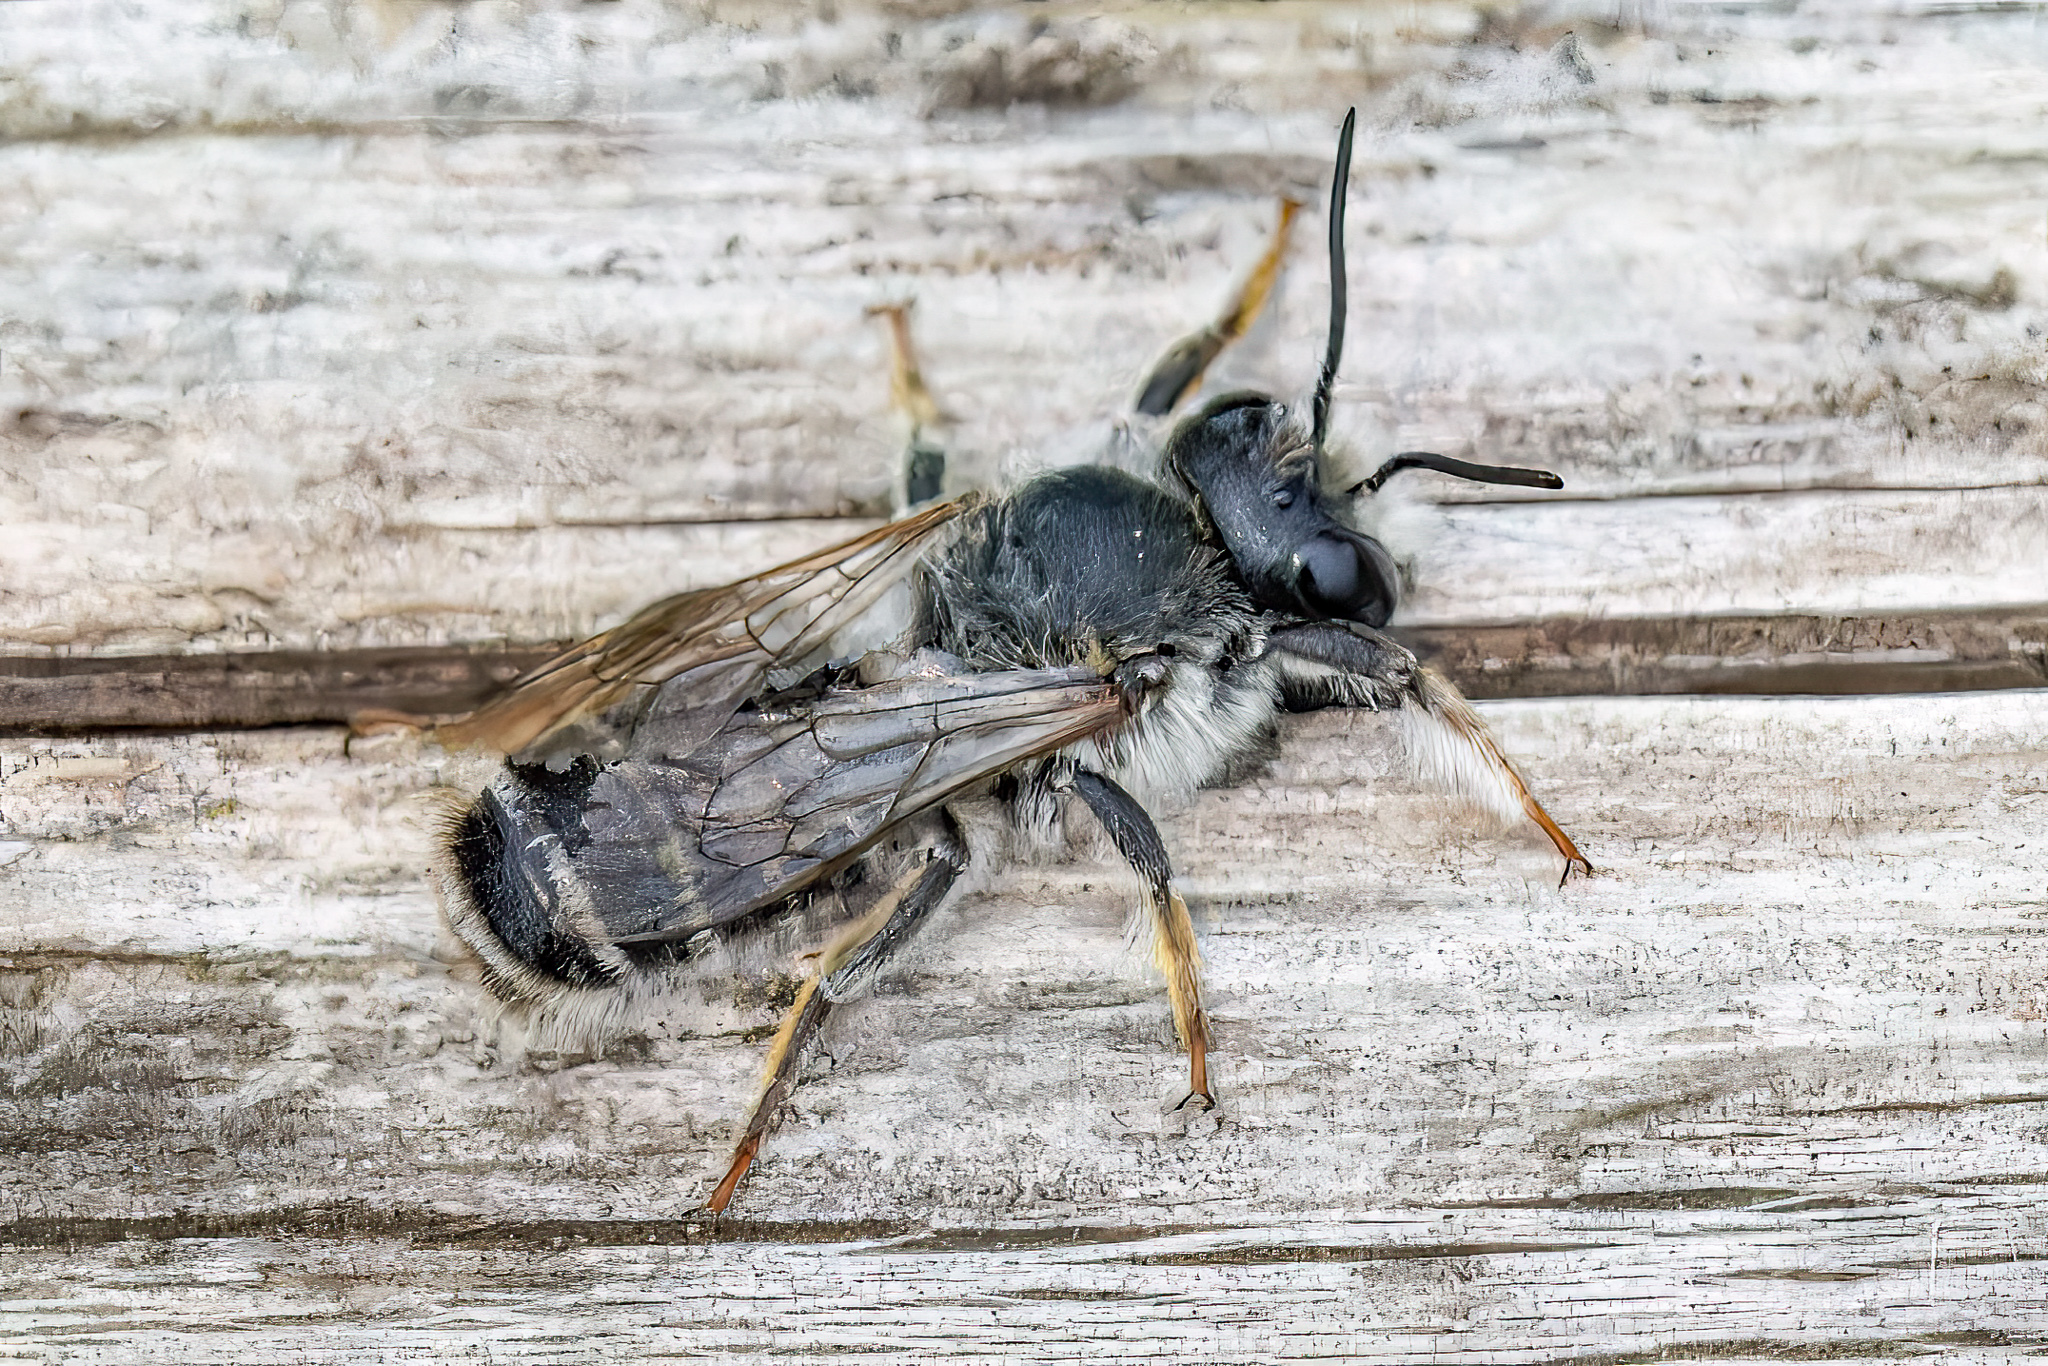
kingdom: Animalia
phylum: Arthropoda
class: Insecta
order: Hymenoptera
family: Megachilidae
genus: Megachile
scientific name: Megachile ericetorum
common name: Leafcutter bee
